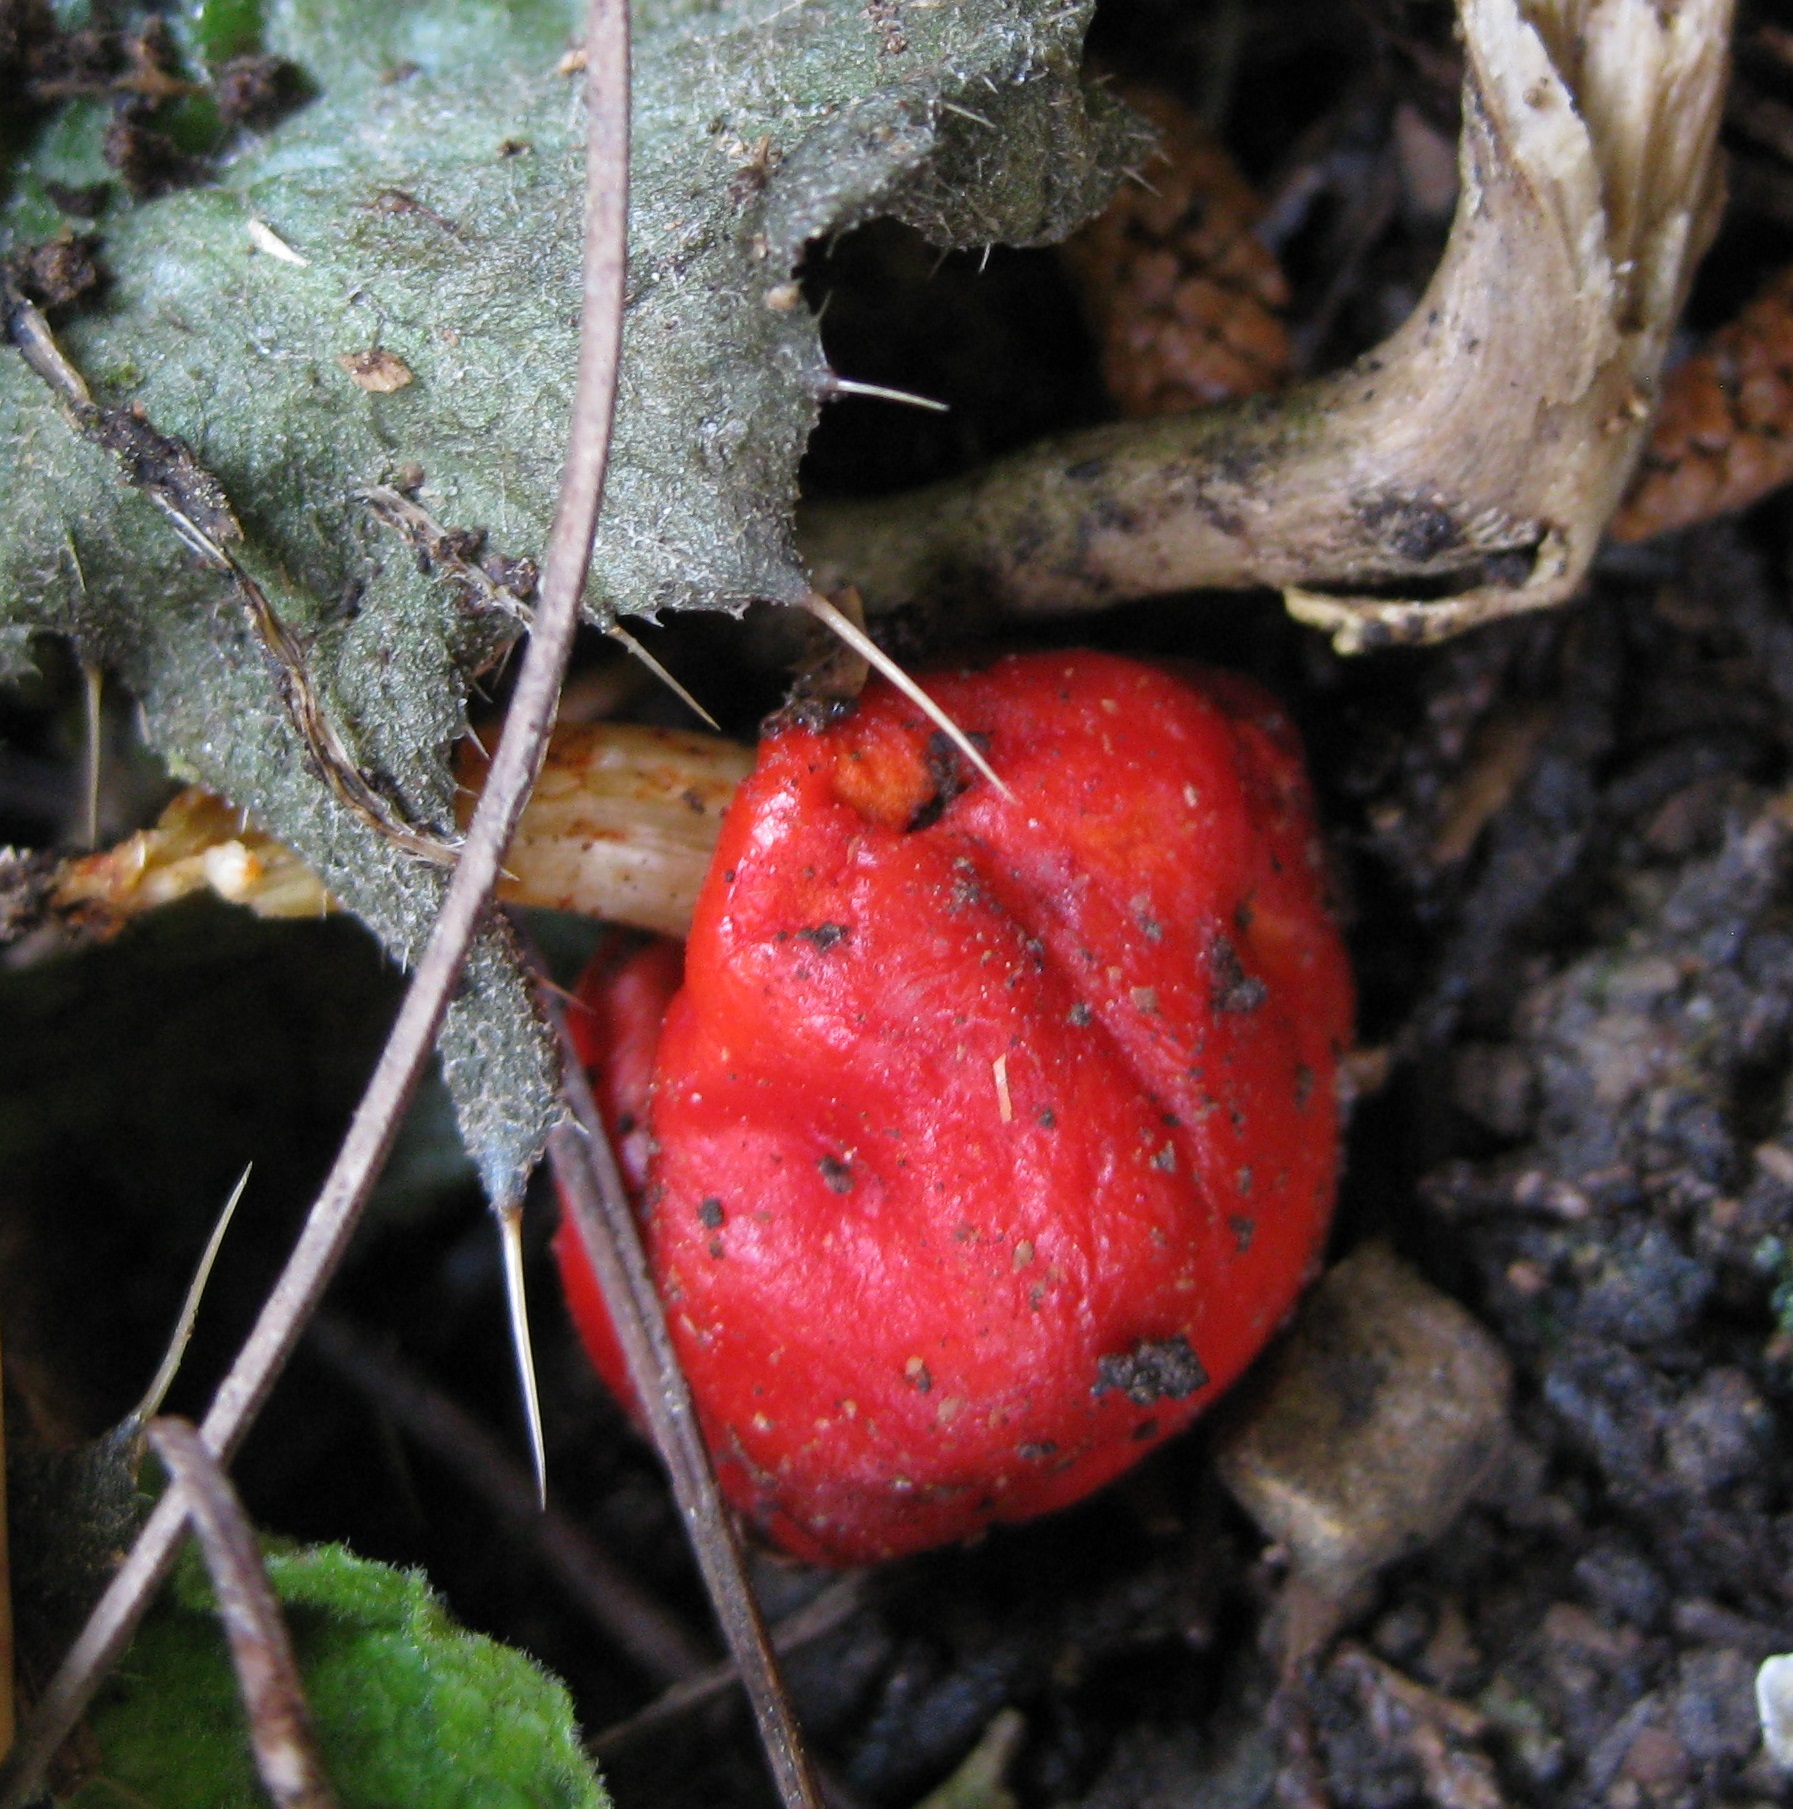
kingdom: Fungi
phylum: Basidiomycota
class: Agaricomycetes
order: Agaricales
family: Strophariaceae
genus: Leratiomyces
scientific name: Leratiomyces erythrocephalus
